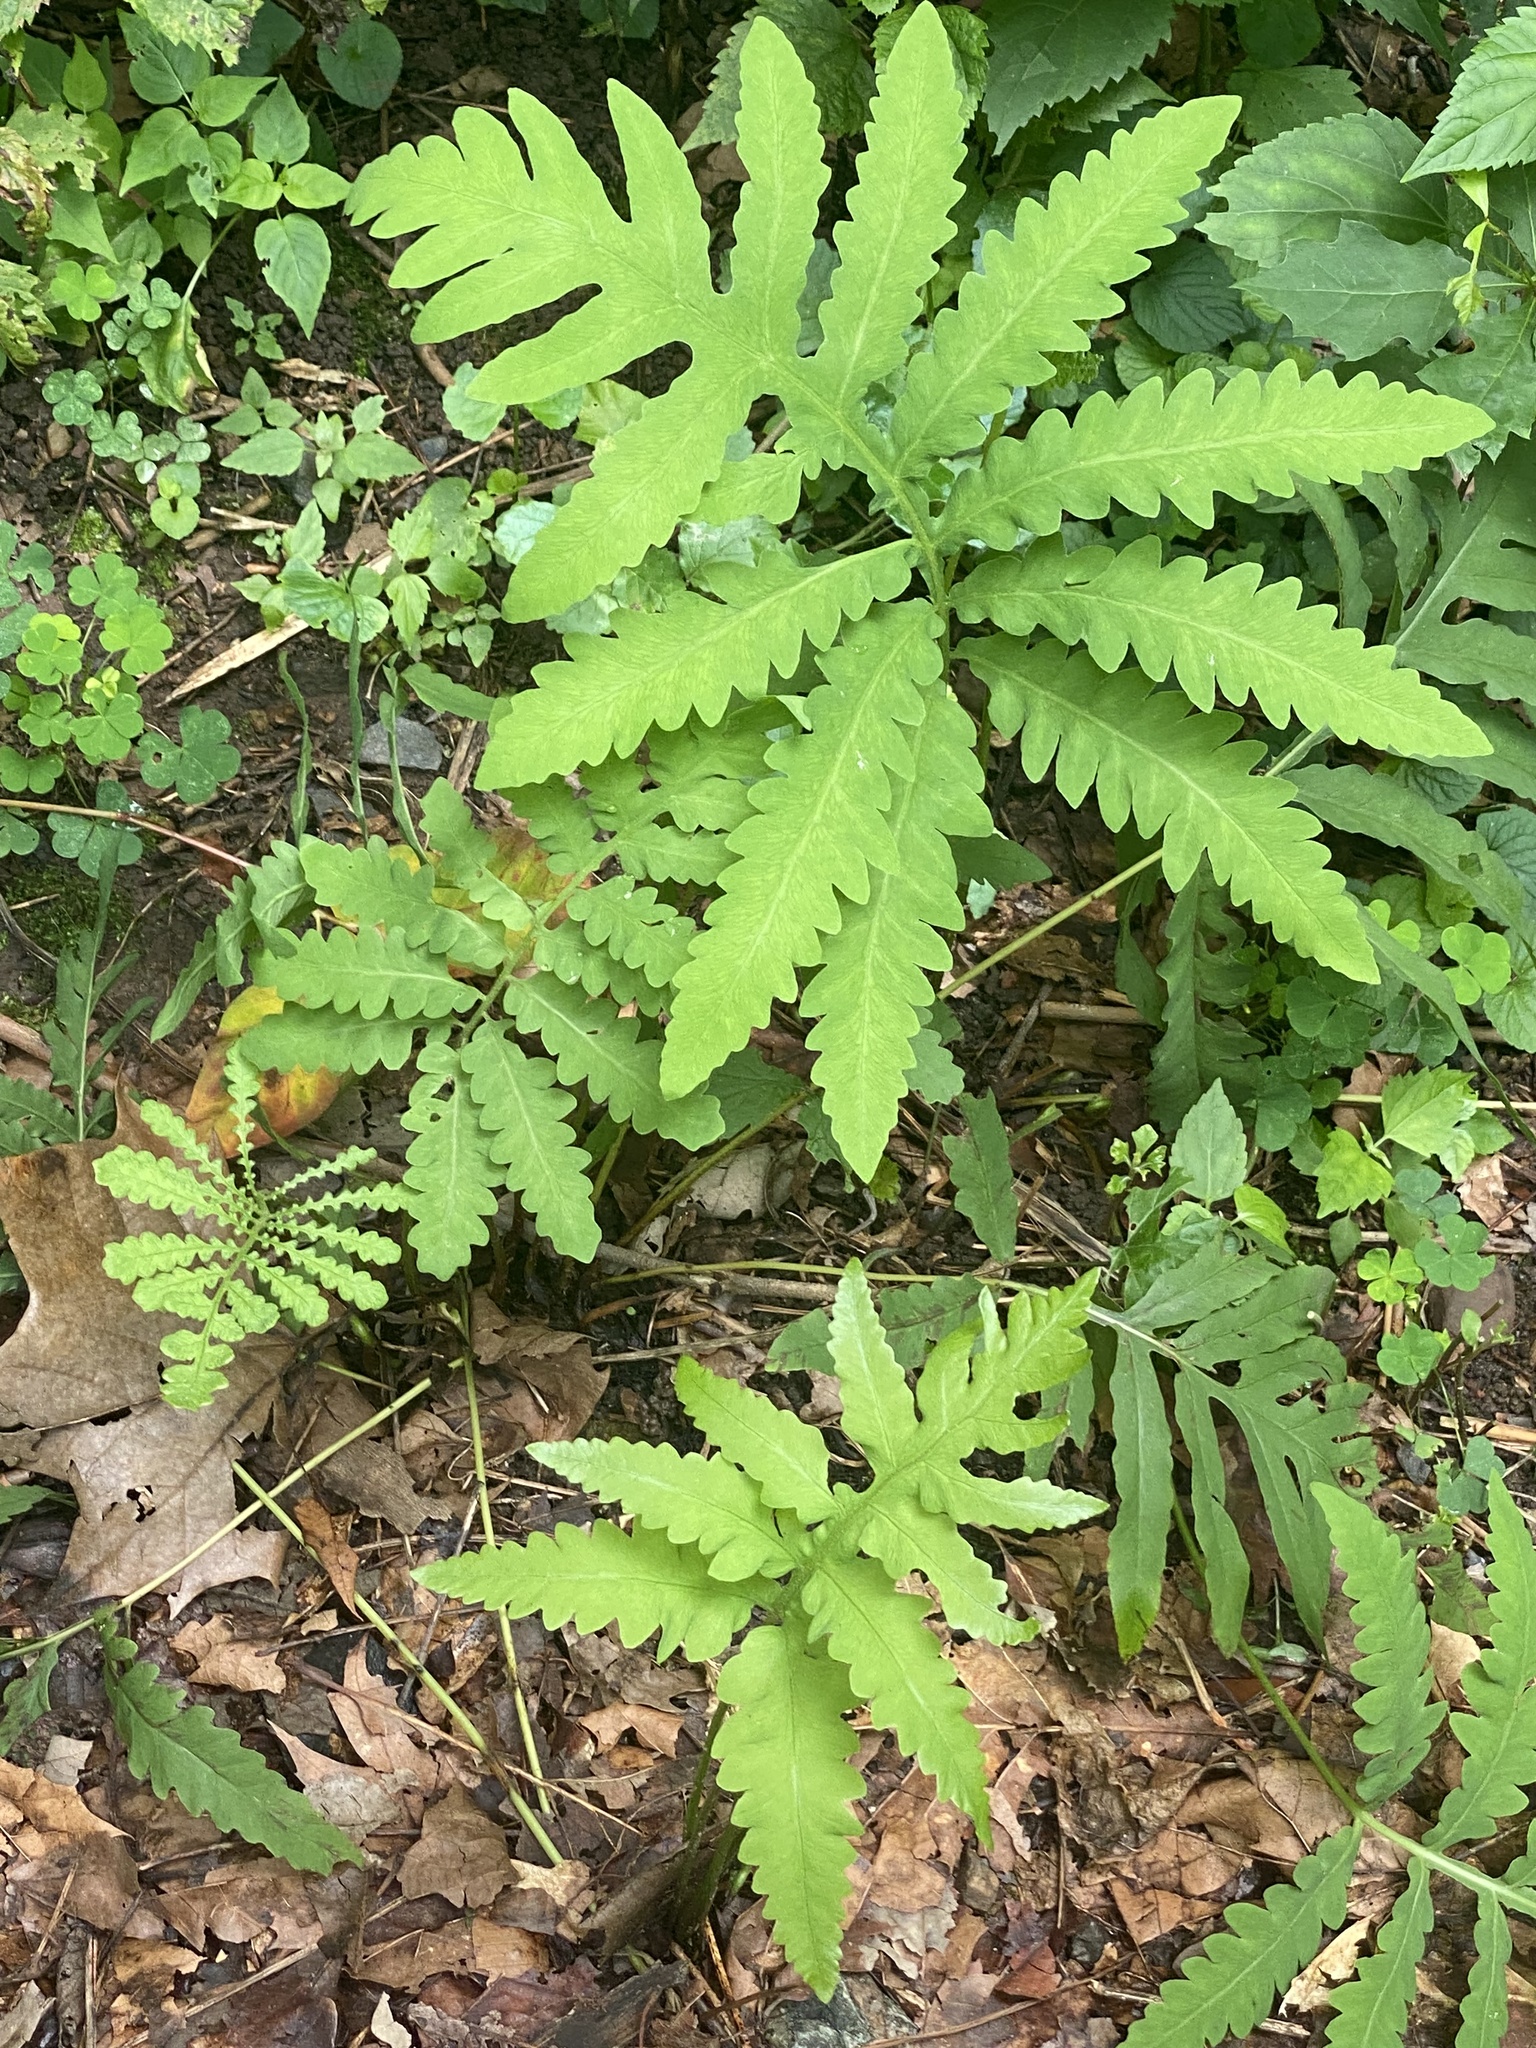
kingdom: Plantae
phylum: Tracheophyta
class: Polypodiopsida
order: Polypodiales
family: Onocleaceae
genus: Onoclea
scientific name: Onoclea sensibilis
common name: Sensitive fern
